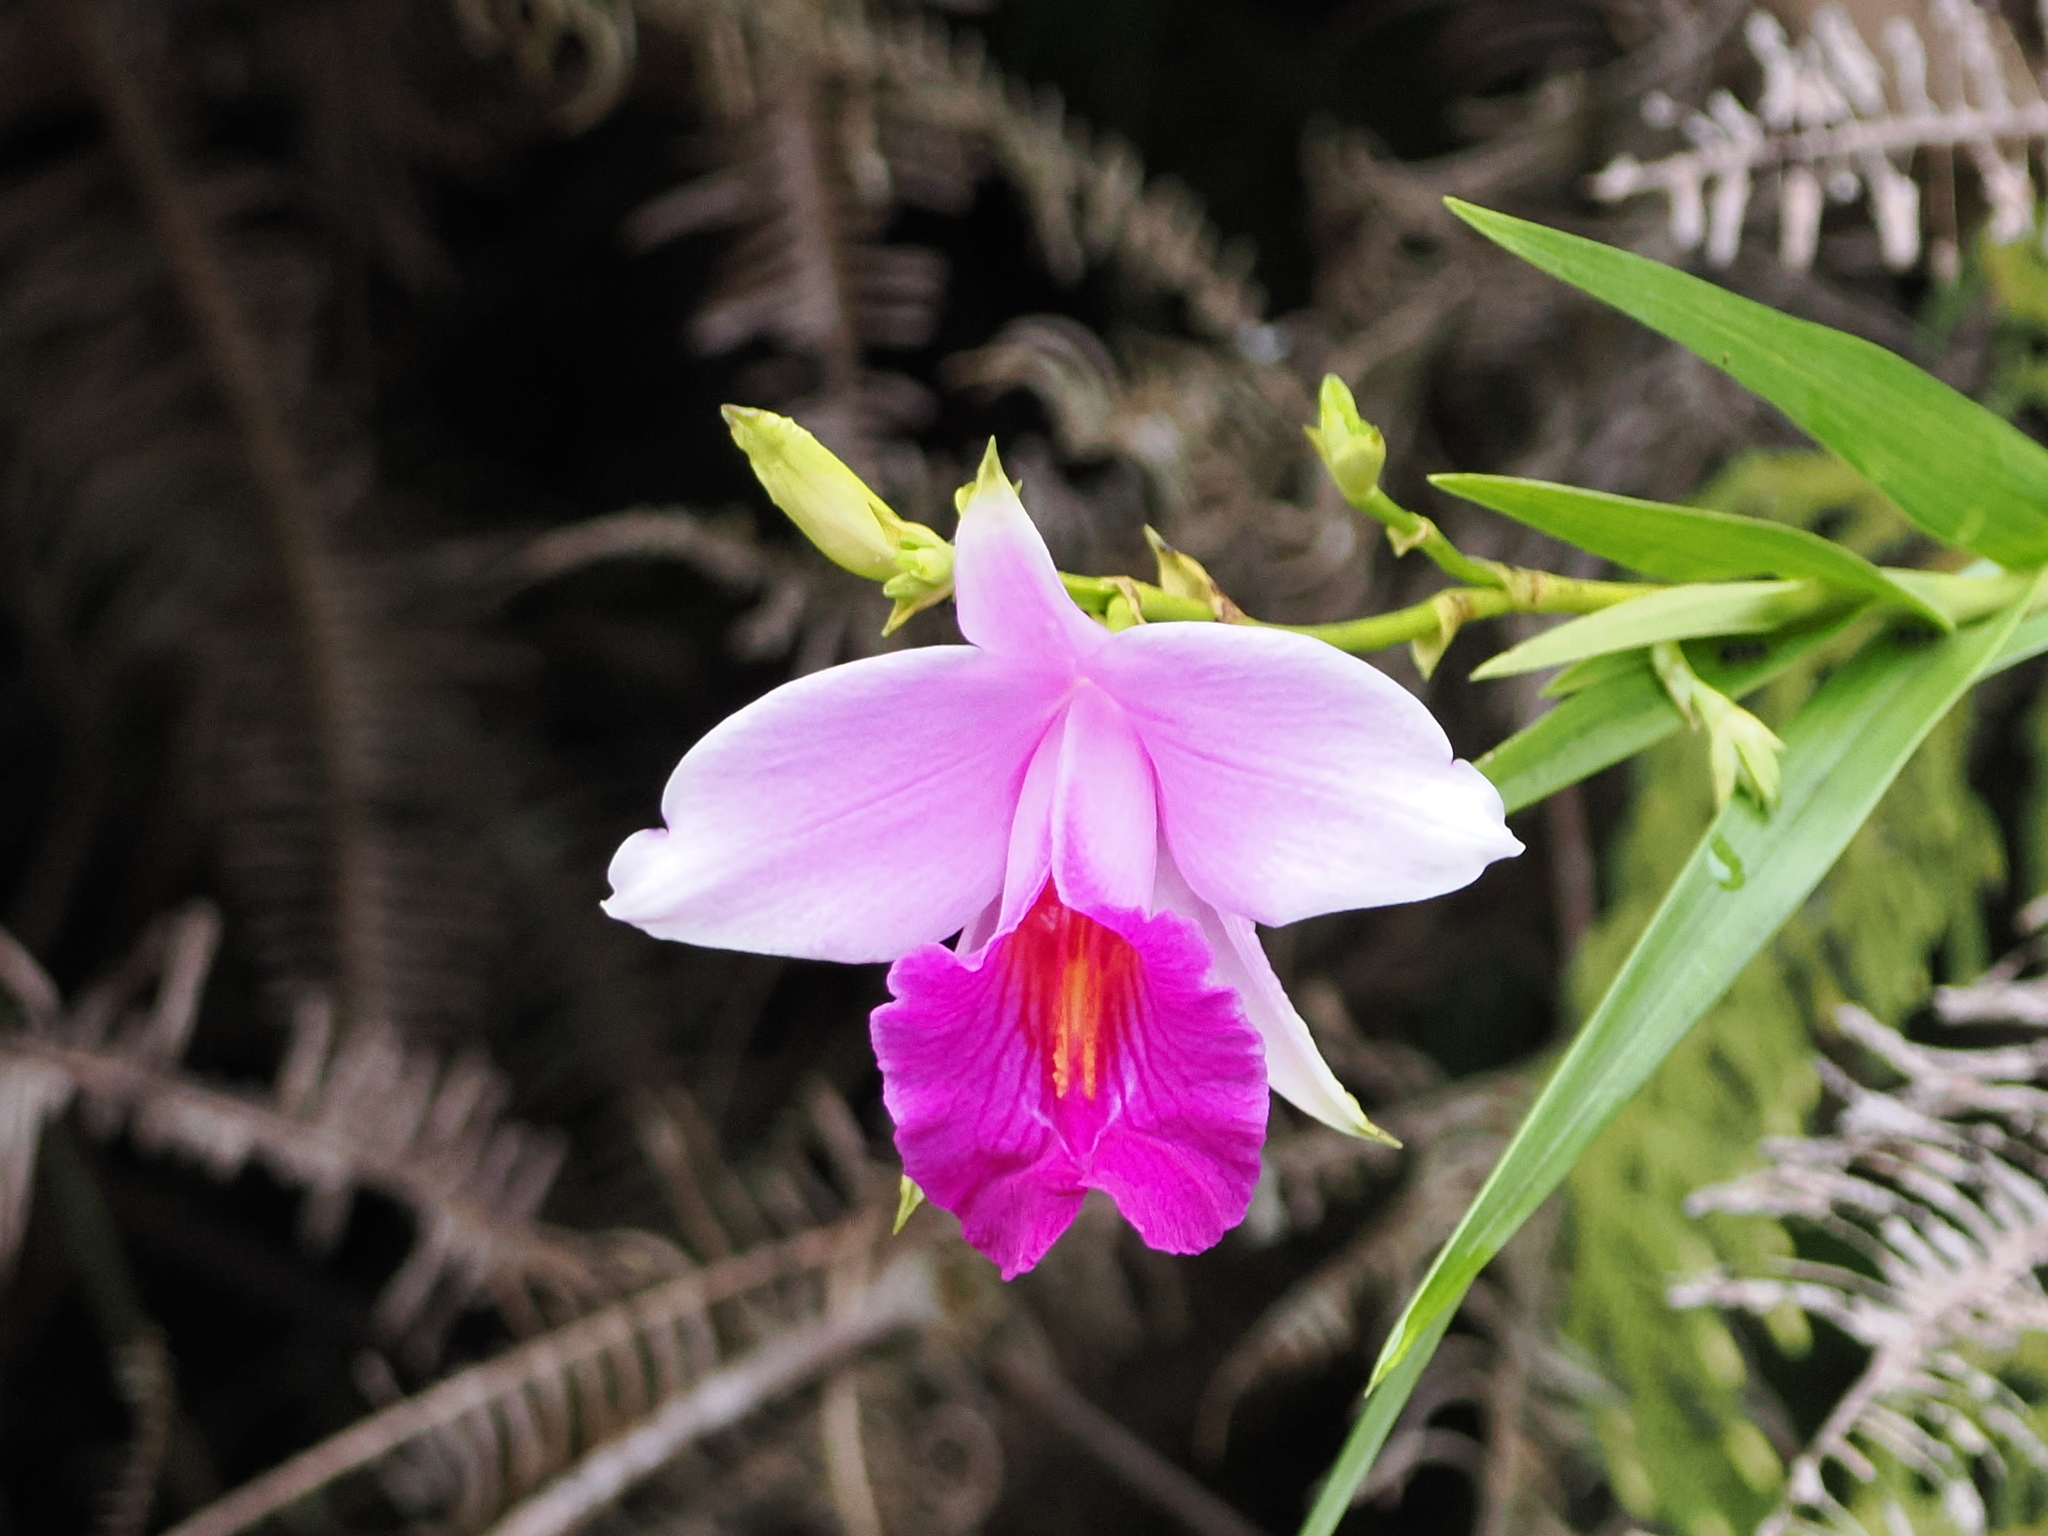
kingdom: Plantae
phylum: Tracheophyta
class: Liliopsida
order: Asparagales
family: Orchidaceae
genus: Arundina
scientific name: Arundina graminifolia
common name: Bamboo orchid
